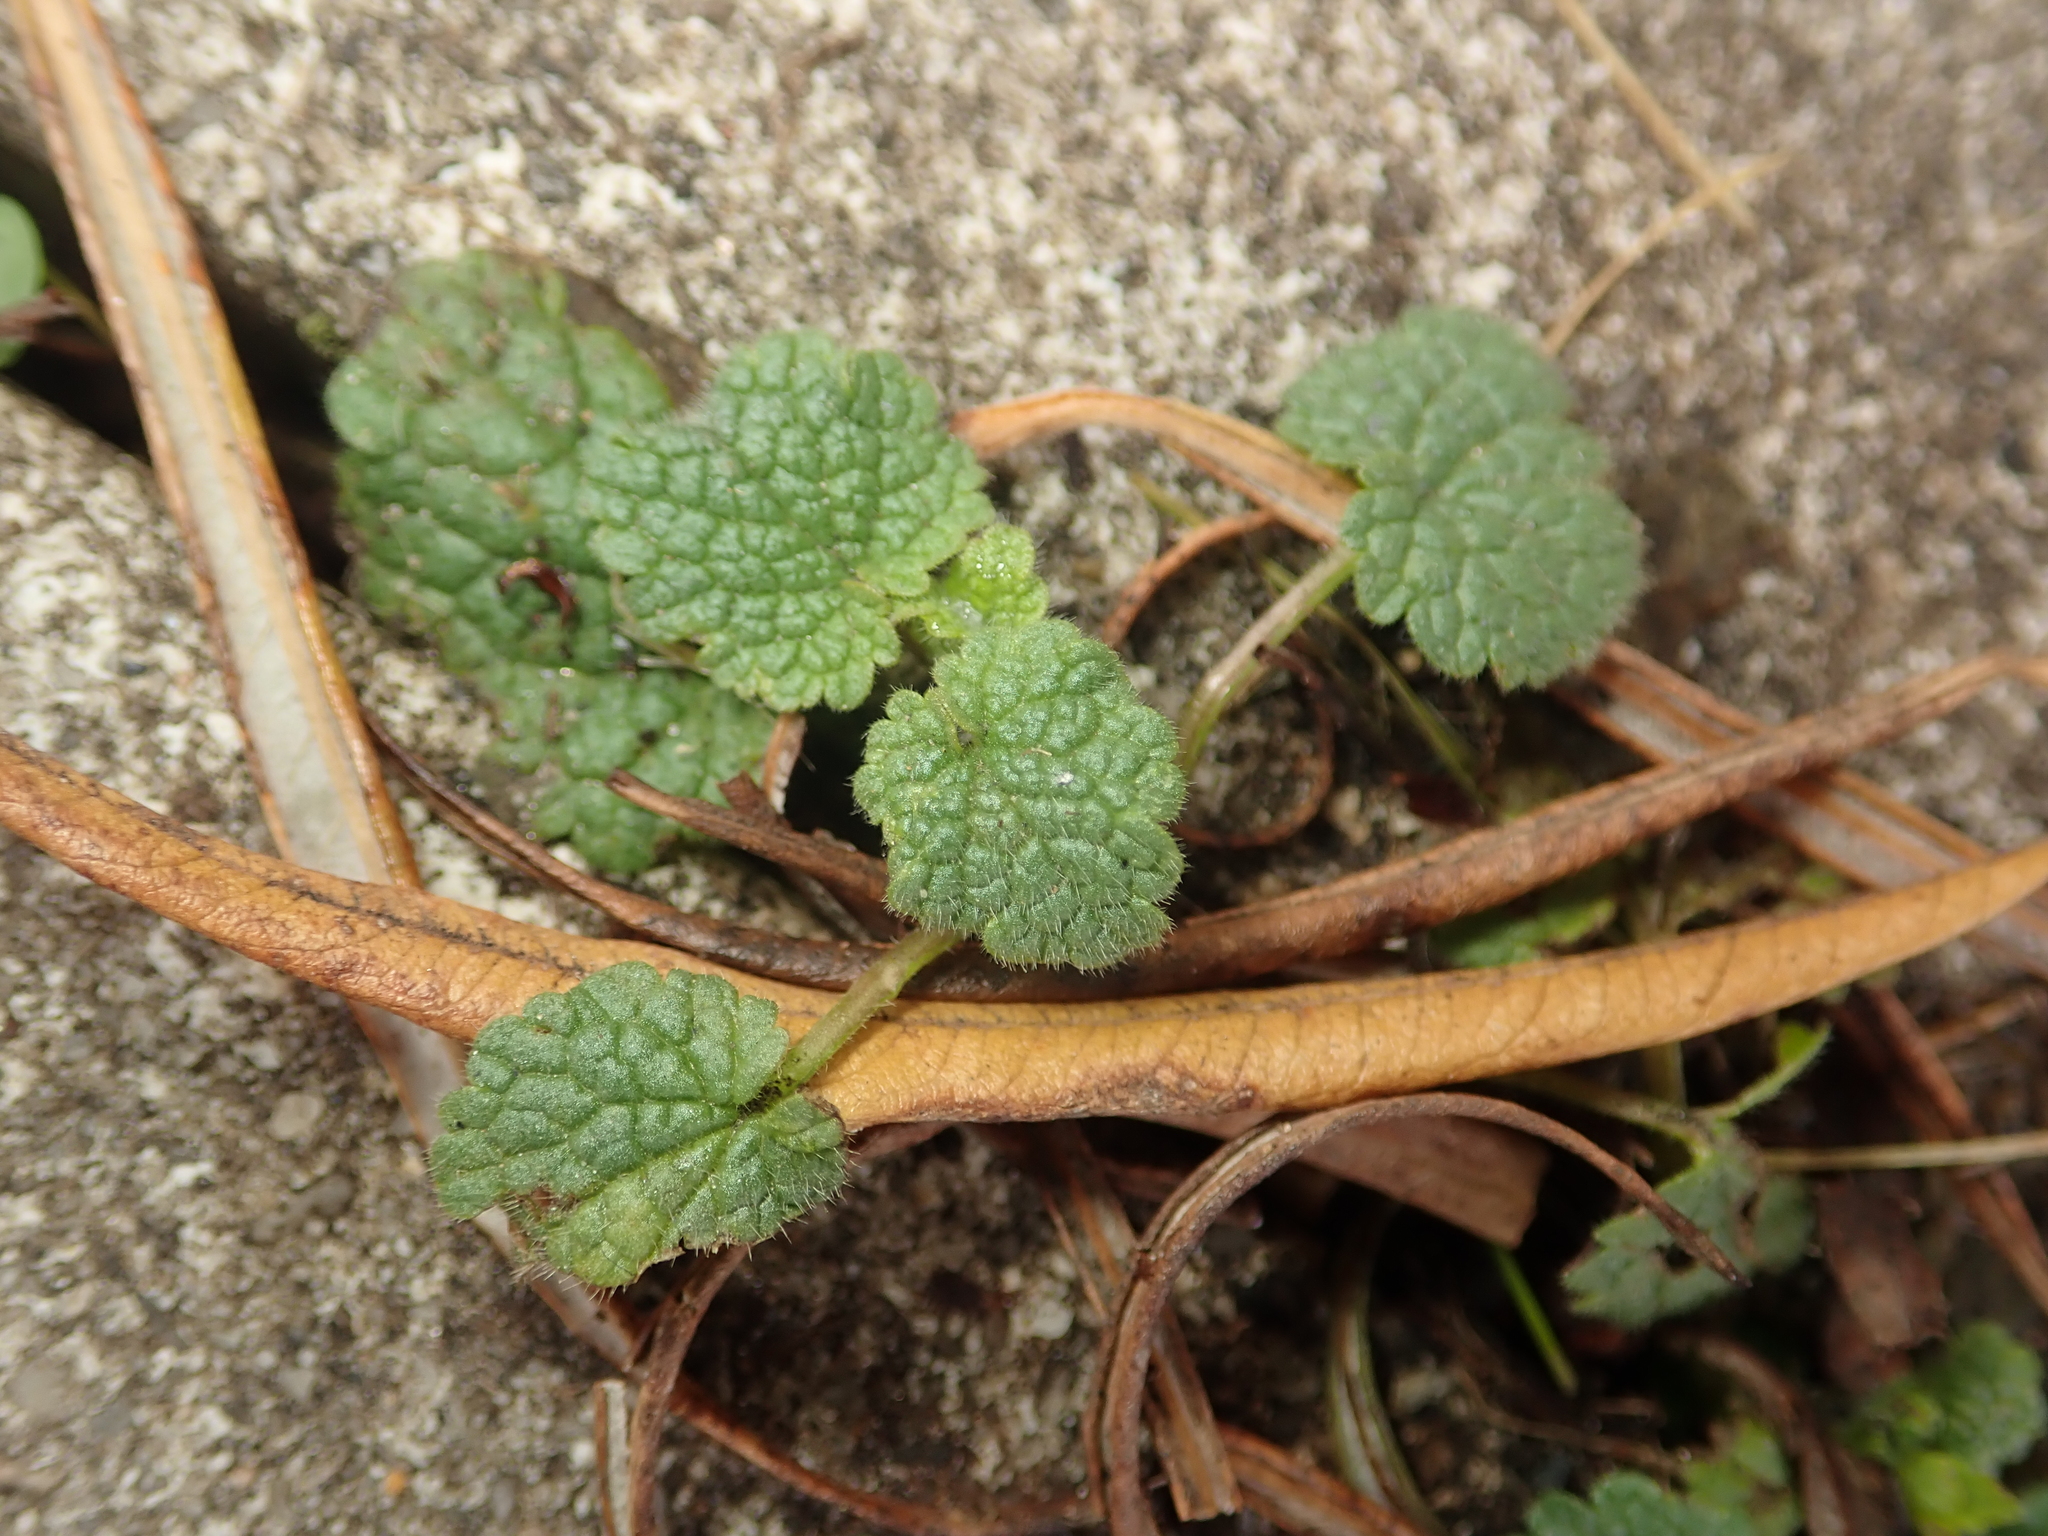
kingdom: Plantae
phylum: Tracheophyta
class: Magnoliopsida
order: Lamiales
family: Lamiaceae
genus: Lamium
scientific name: Lamium purpureum
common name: Red dead-nettle
